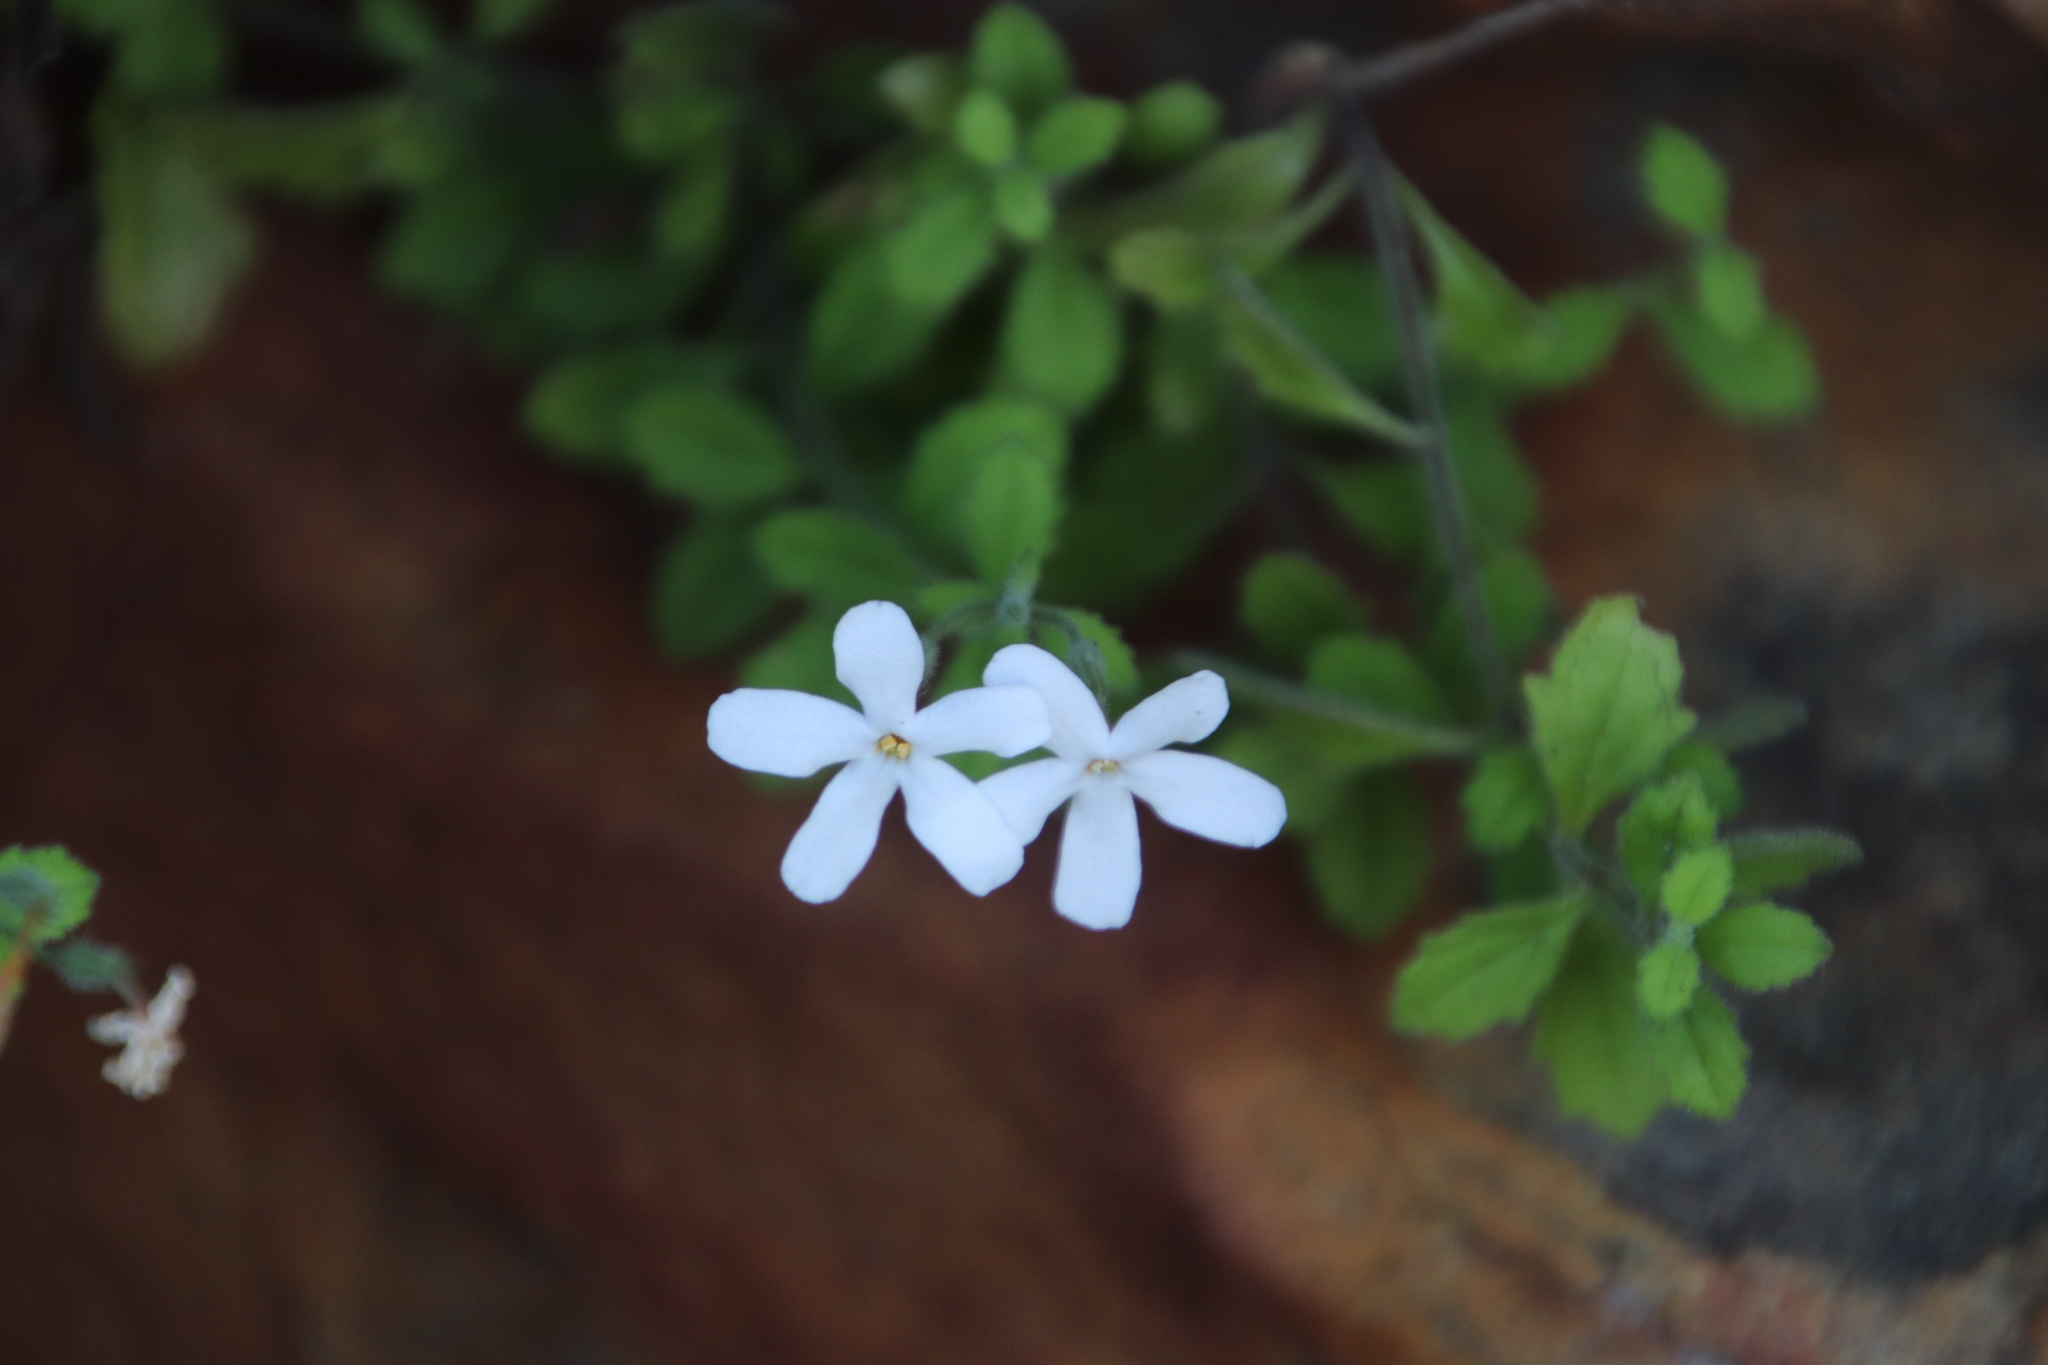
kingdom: Plantae
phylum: Tracheophyta
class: Magnoliopsida
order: Lamiales
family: Scrophulariaceae
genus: Chaenostoma
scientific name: Chaenostoma hispidum
